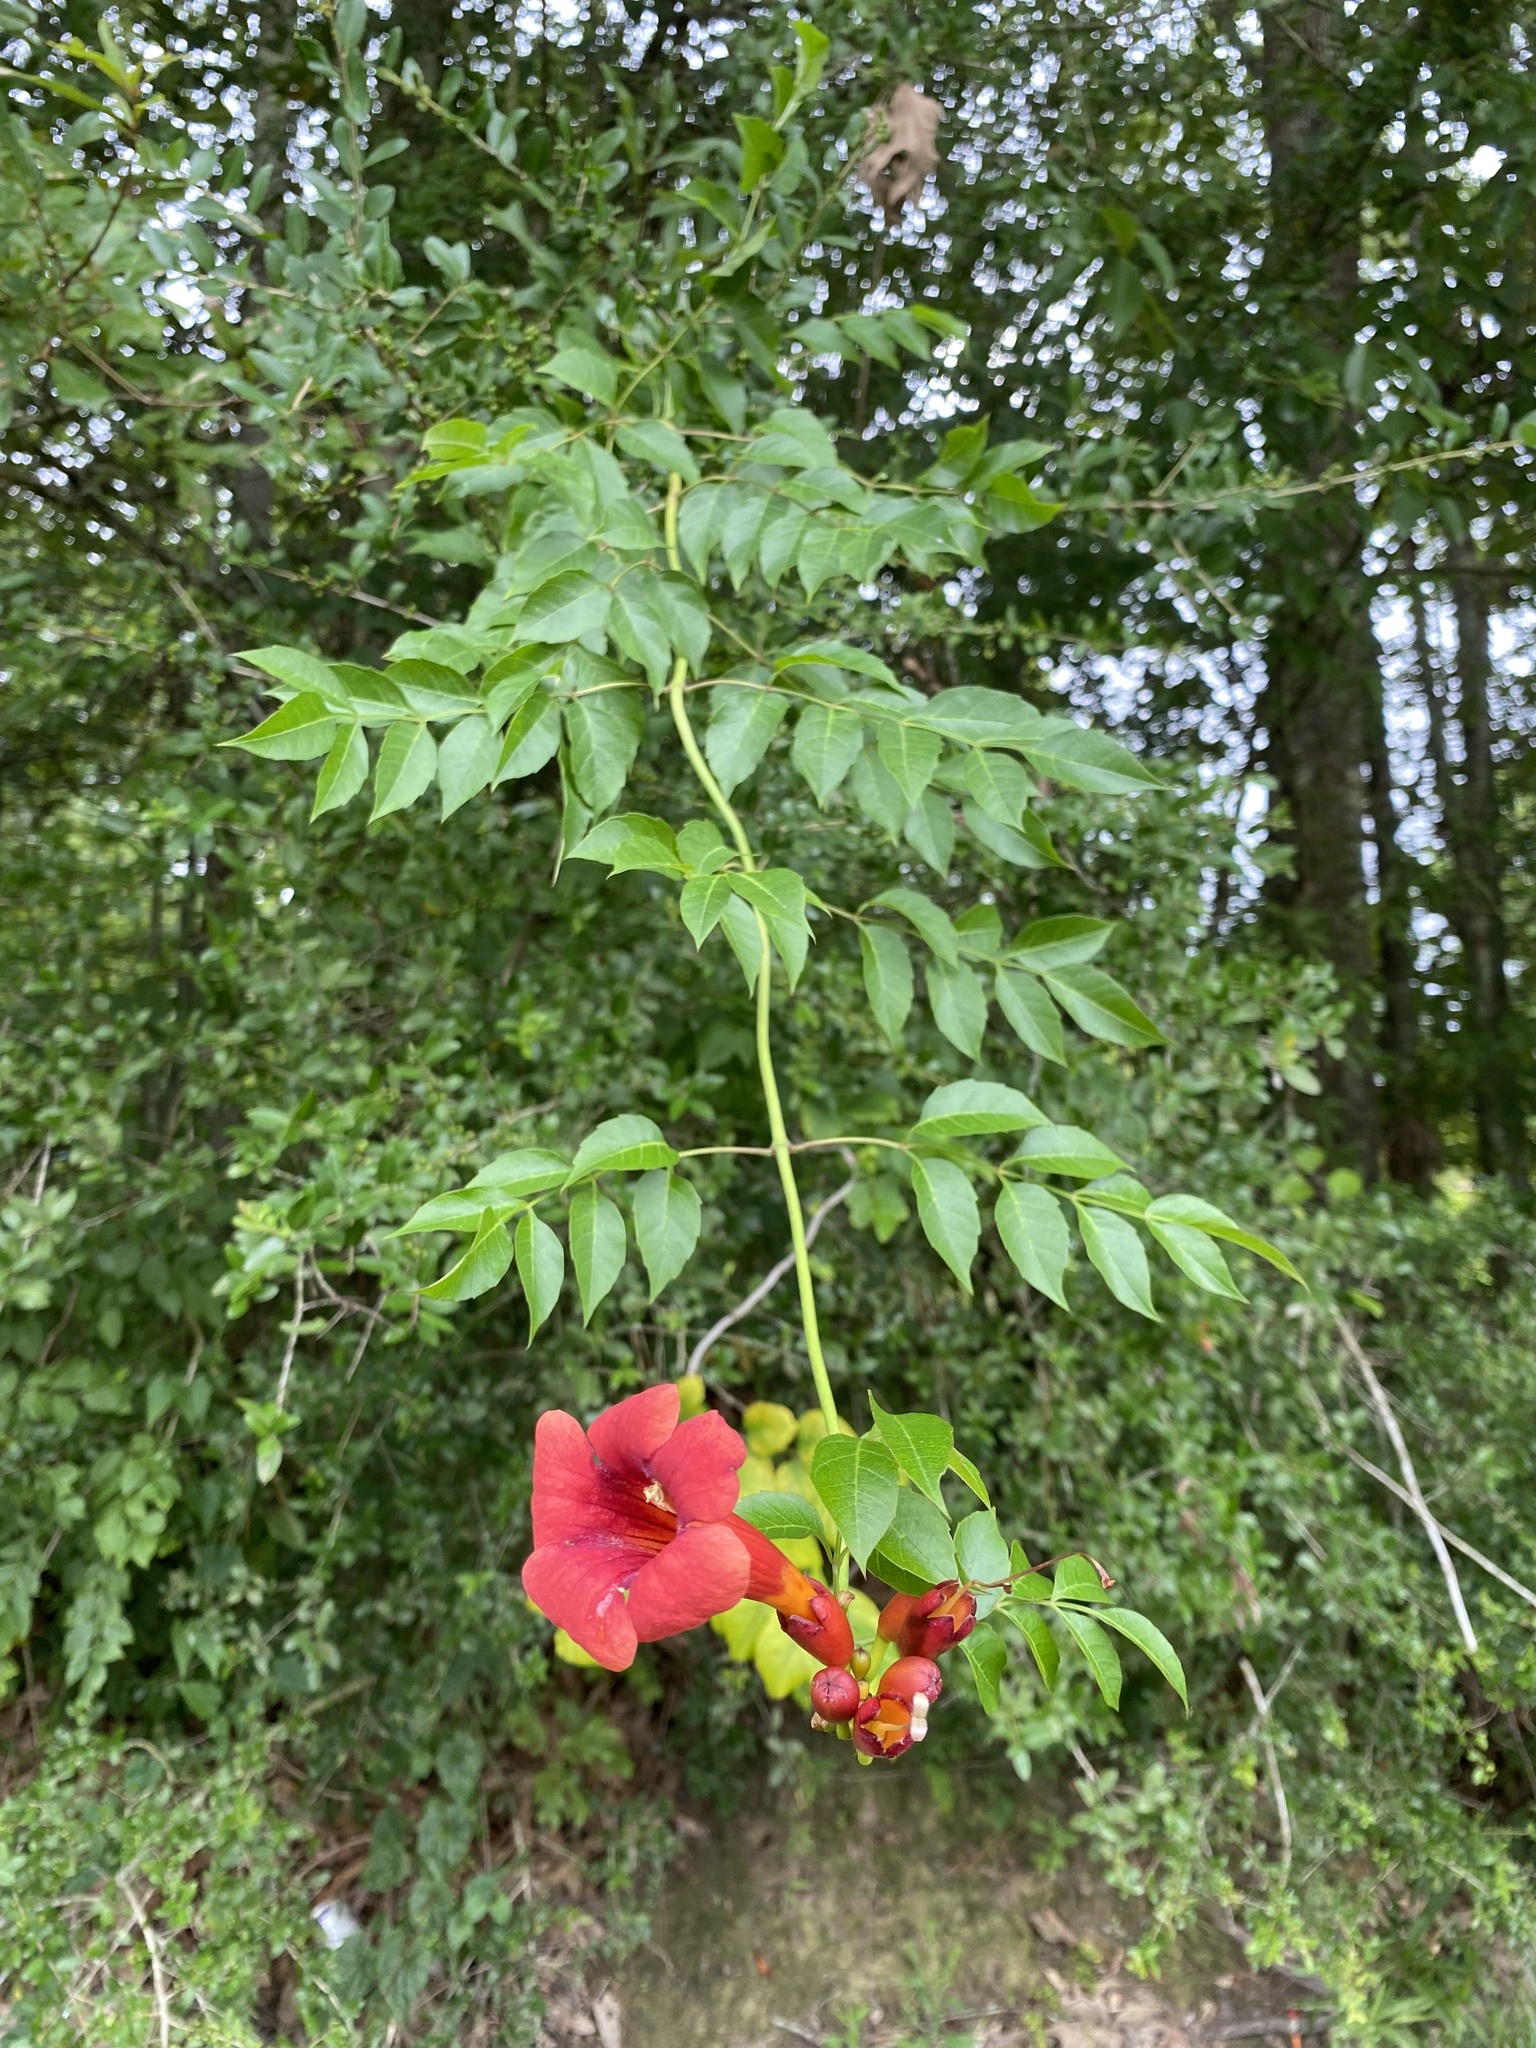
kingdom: Plantae
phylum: Tracheophyta
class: Magnoliopsida
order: Lamiales
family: Bignoniaceae
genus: Campsis
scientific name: Campsis radicans
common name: Trumpet-creeper
